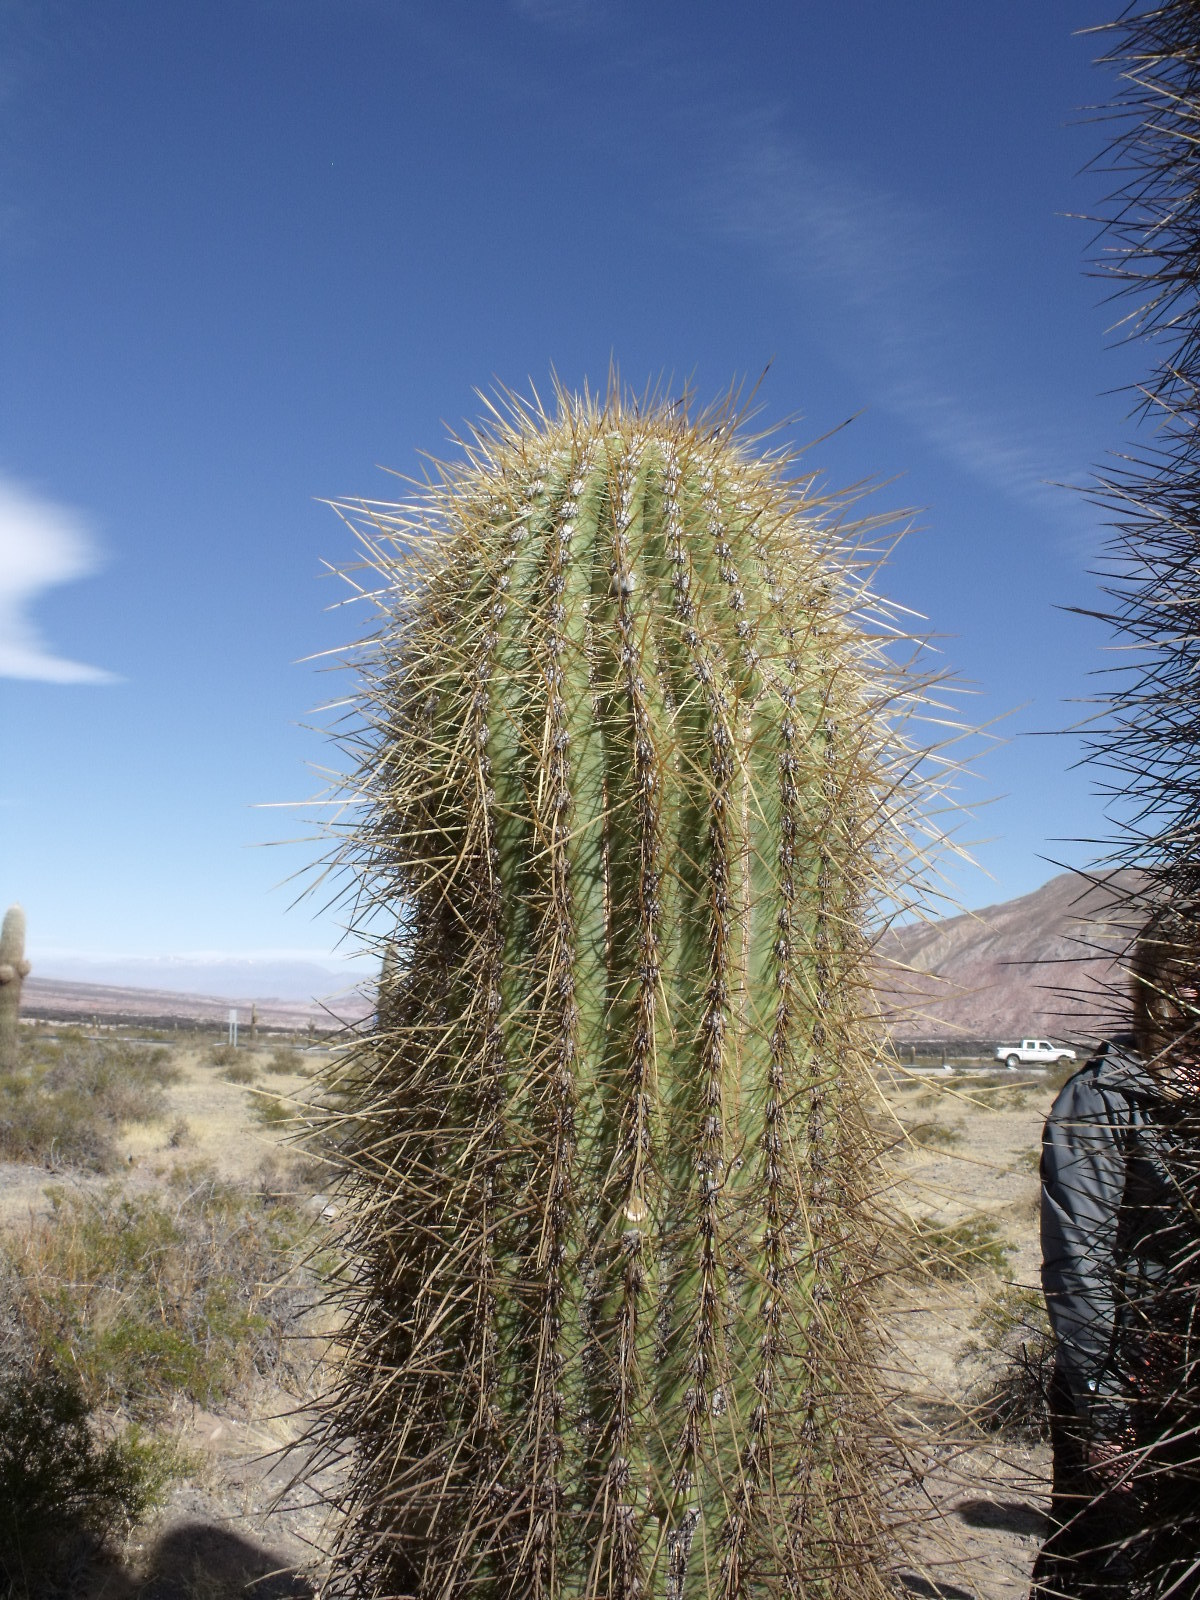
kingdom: Plantae
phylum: Tracheophyta
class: Magnoliopsida
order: Caryophyllales
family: Cactaceae
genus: Leucostele
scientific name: Leucostele atacamensis
